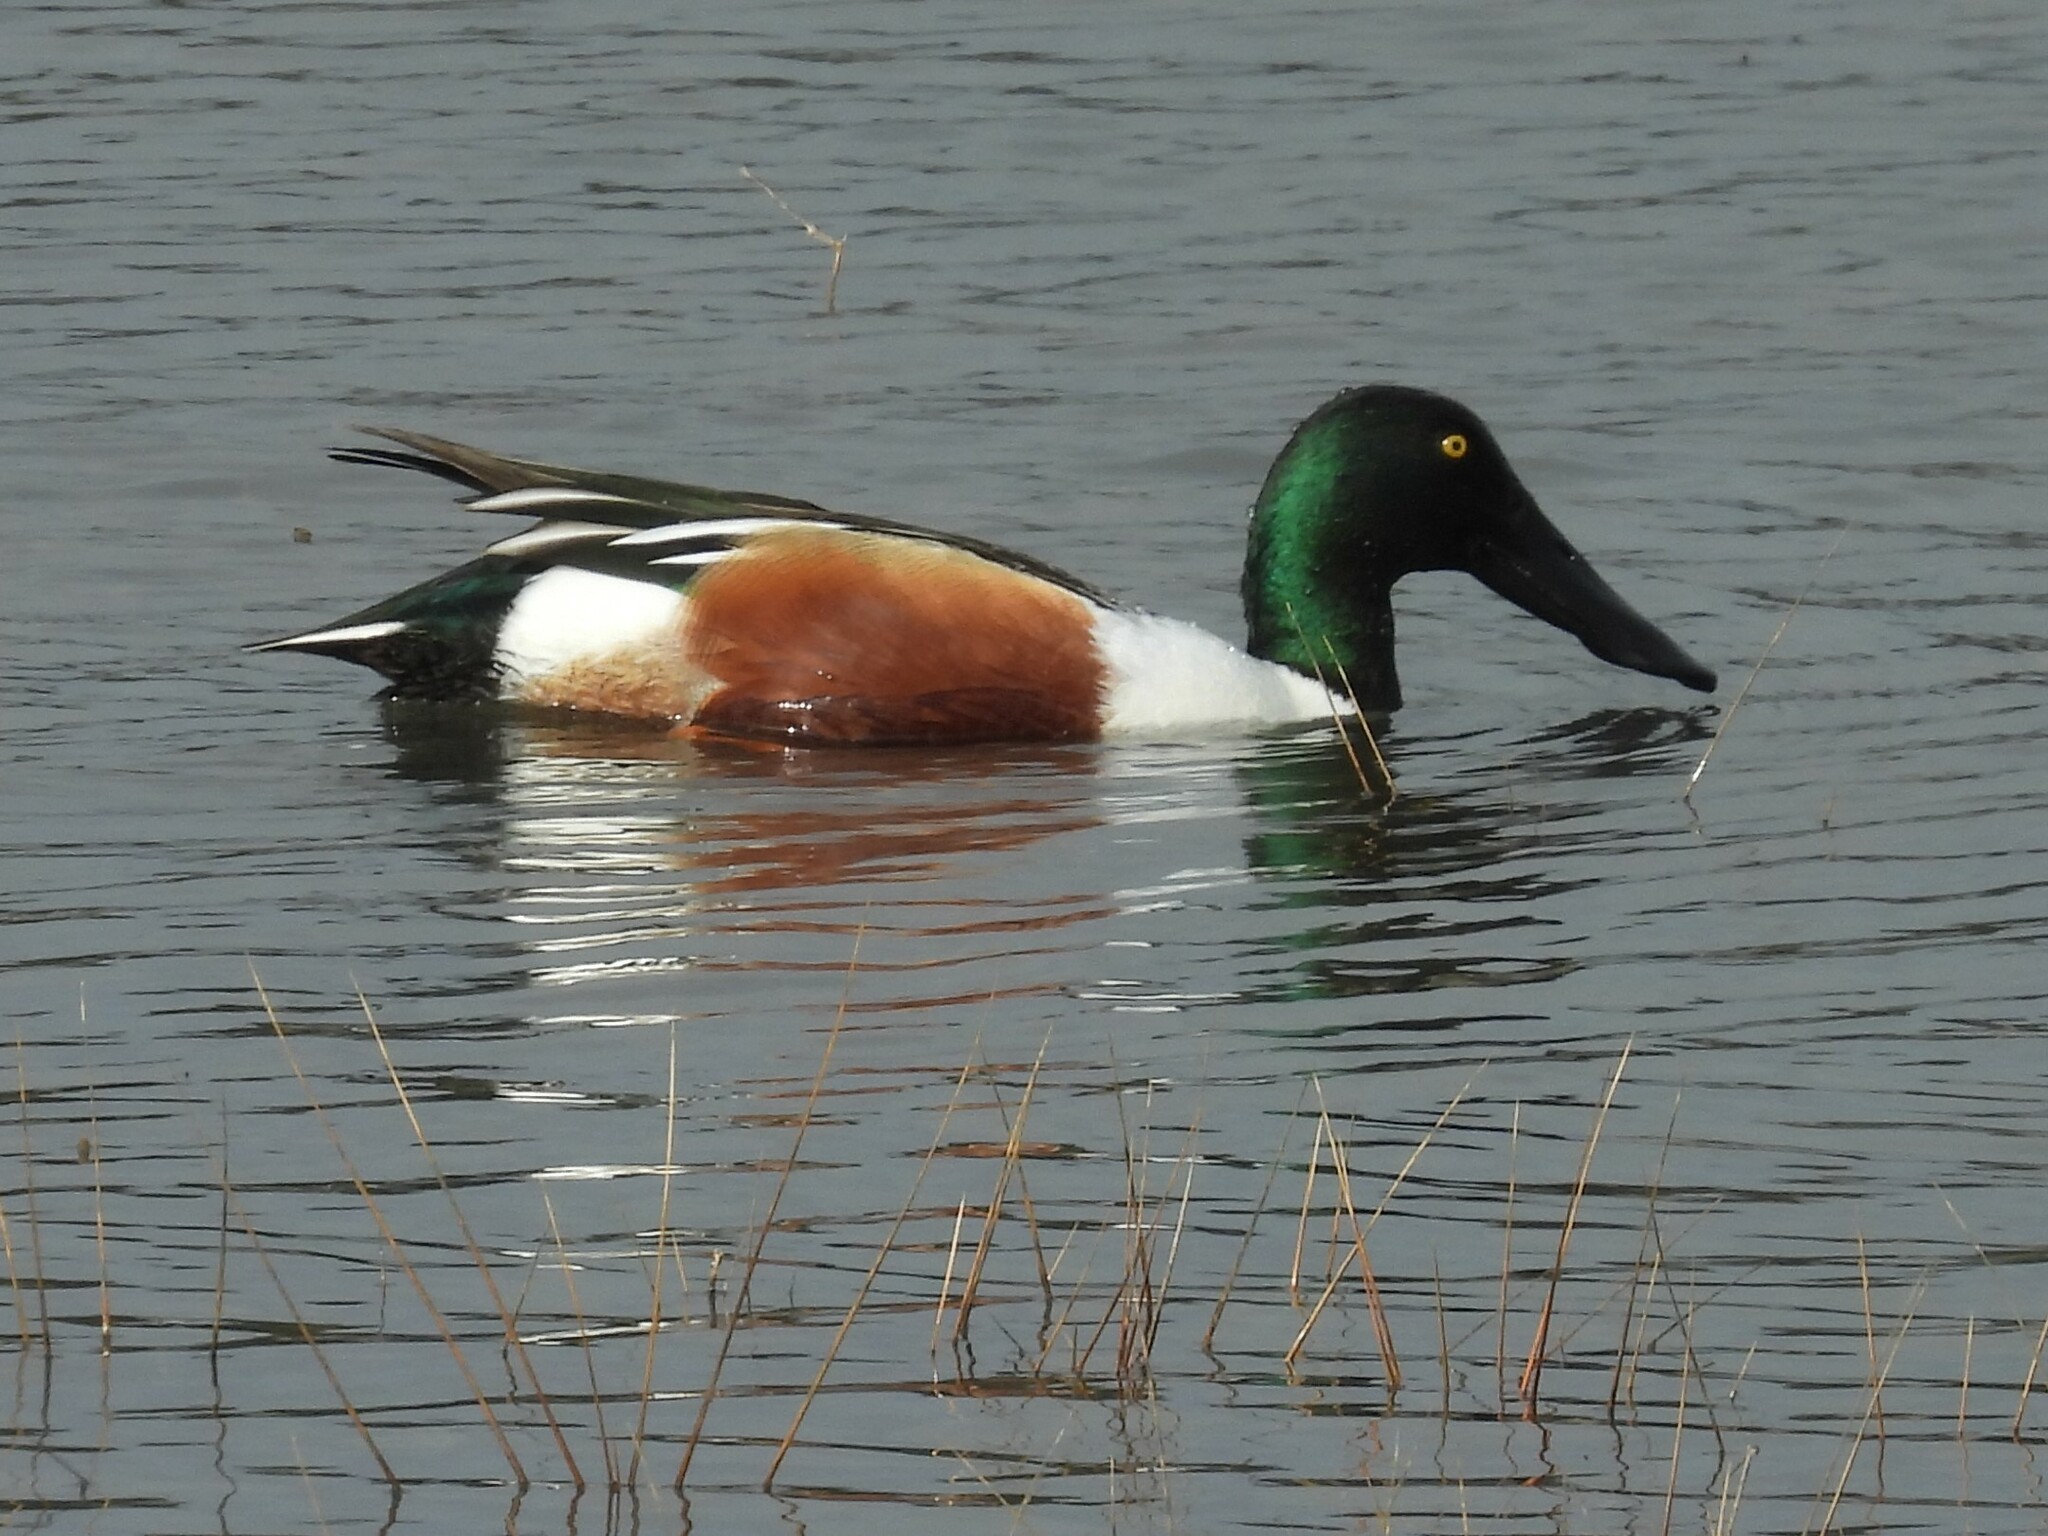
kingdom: Animalia
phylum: Chordata
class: Aves
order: Anseriformes
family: Anatidae
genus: Spatula
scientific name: Spatula clypeata
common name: Northern shoveler
